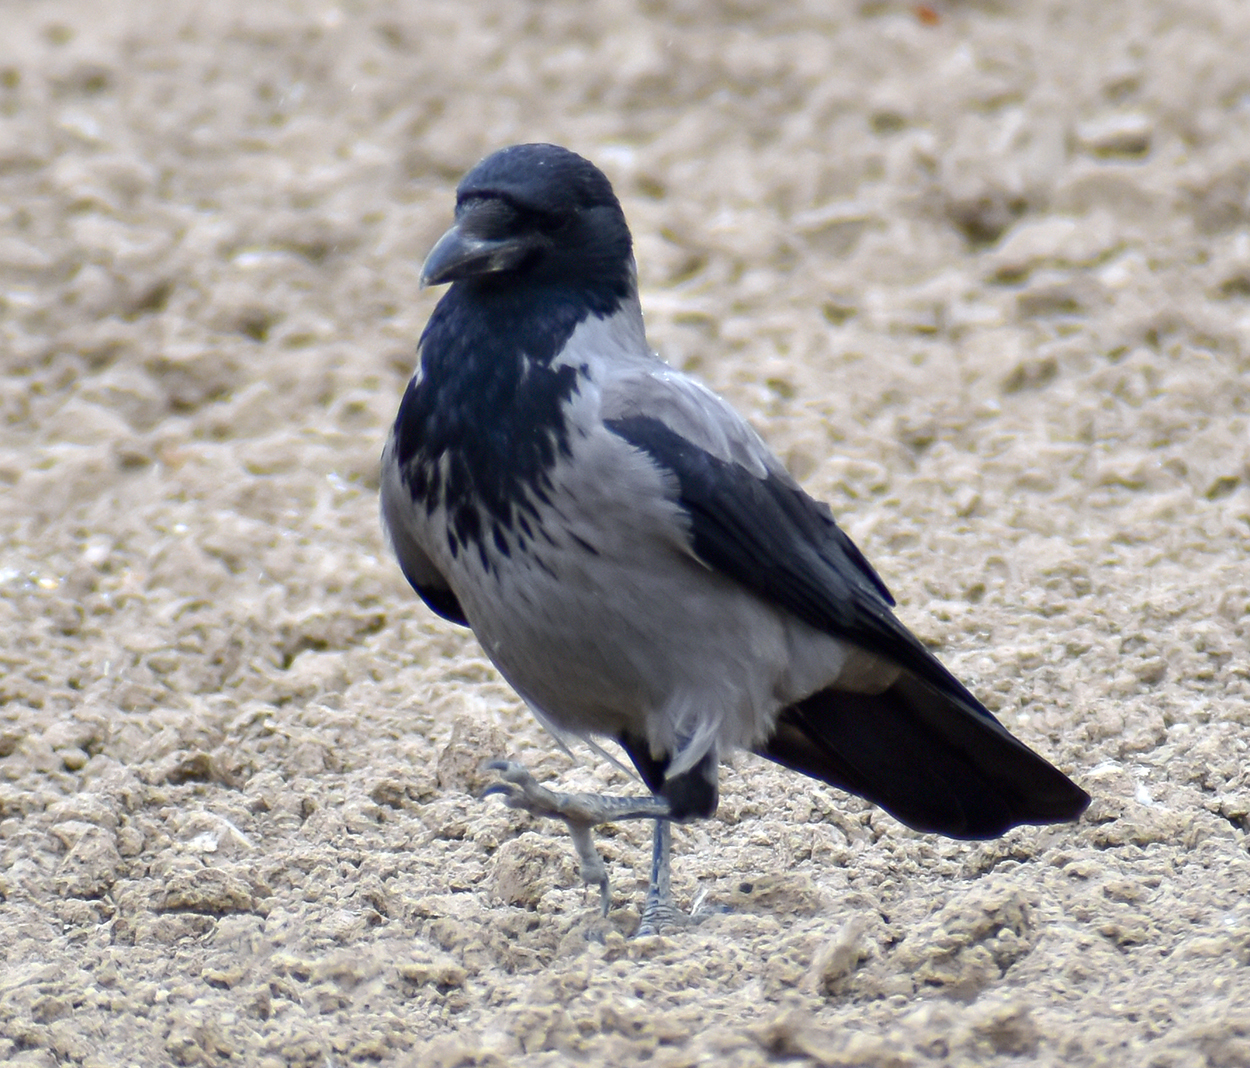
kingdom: Animalia
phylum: Chordata
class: Aves
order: Passeriformes
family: Corvidae
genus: Corvus
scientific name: Corvus cornix
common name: Hooded crow
